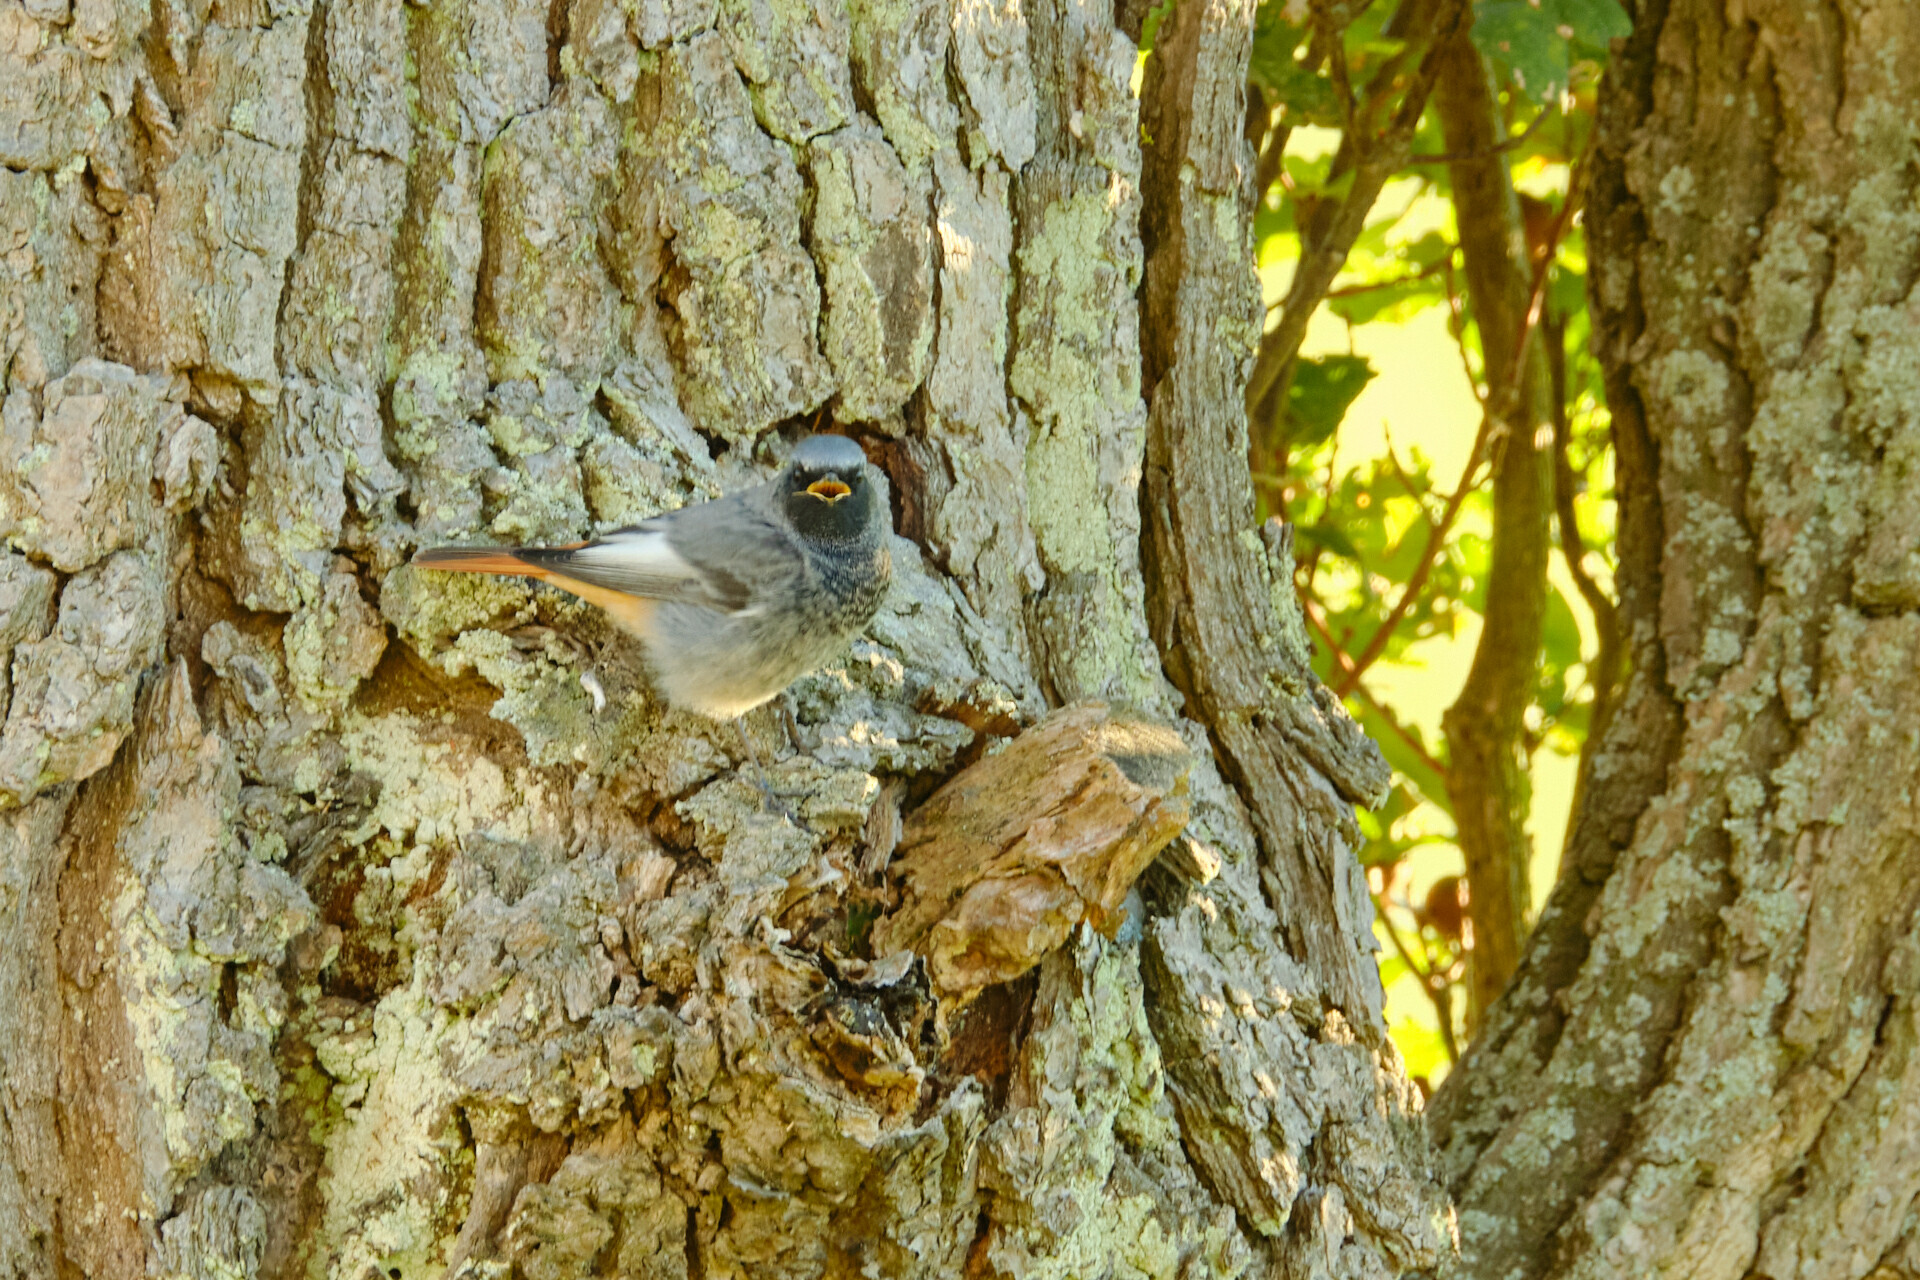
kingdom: Animalia
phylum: Chordata
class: Aves
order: Passeriformes
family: Muscicapidae
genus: Phoenicurus
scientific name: Phoenicurus ochruros
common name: Black redstart
